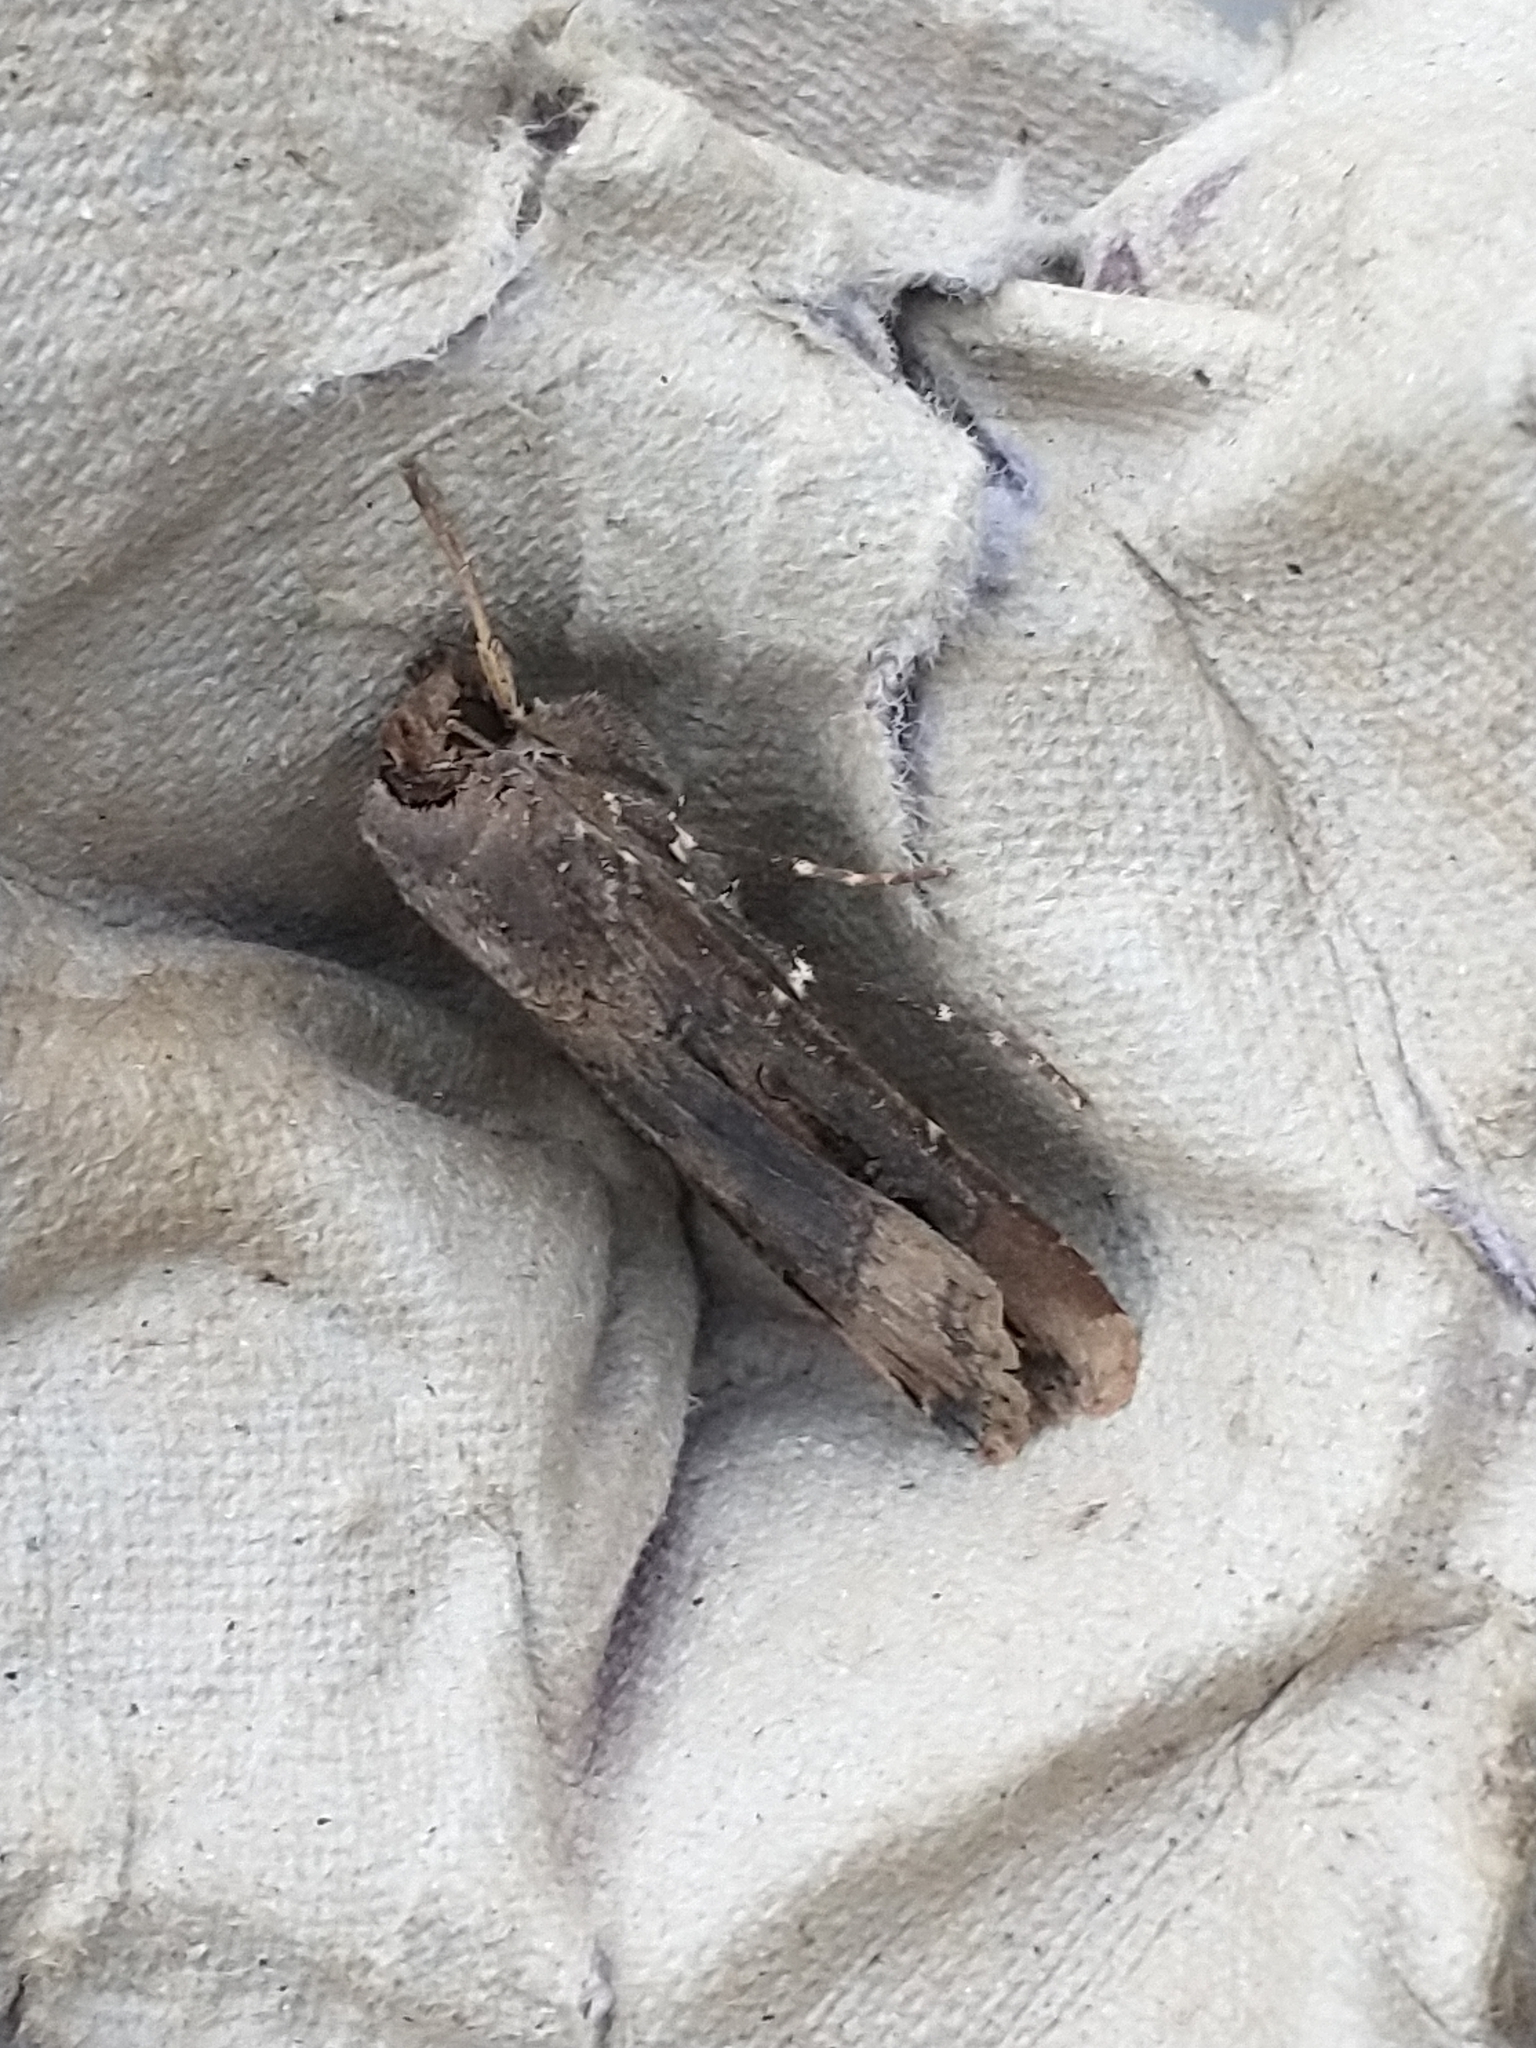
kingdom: Animalia
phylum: Arthropoda
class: Insecta
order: Lepidoptera
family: Noctuidae
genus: Agrotis
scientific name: Agrotis ipsilon
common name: Dark sword-grass
